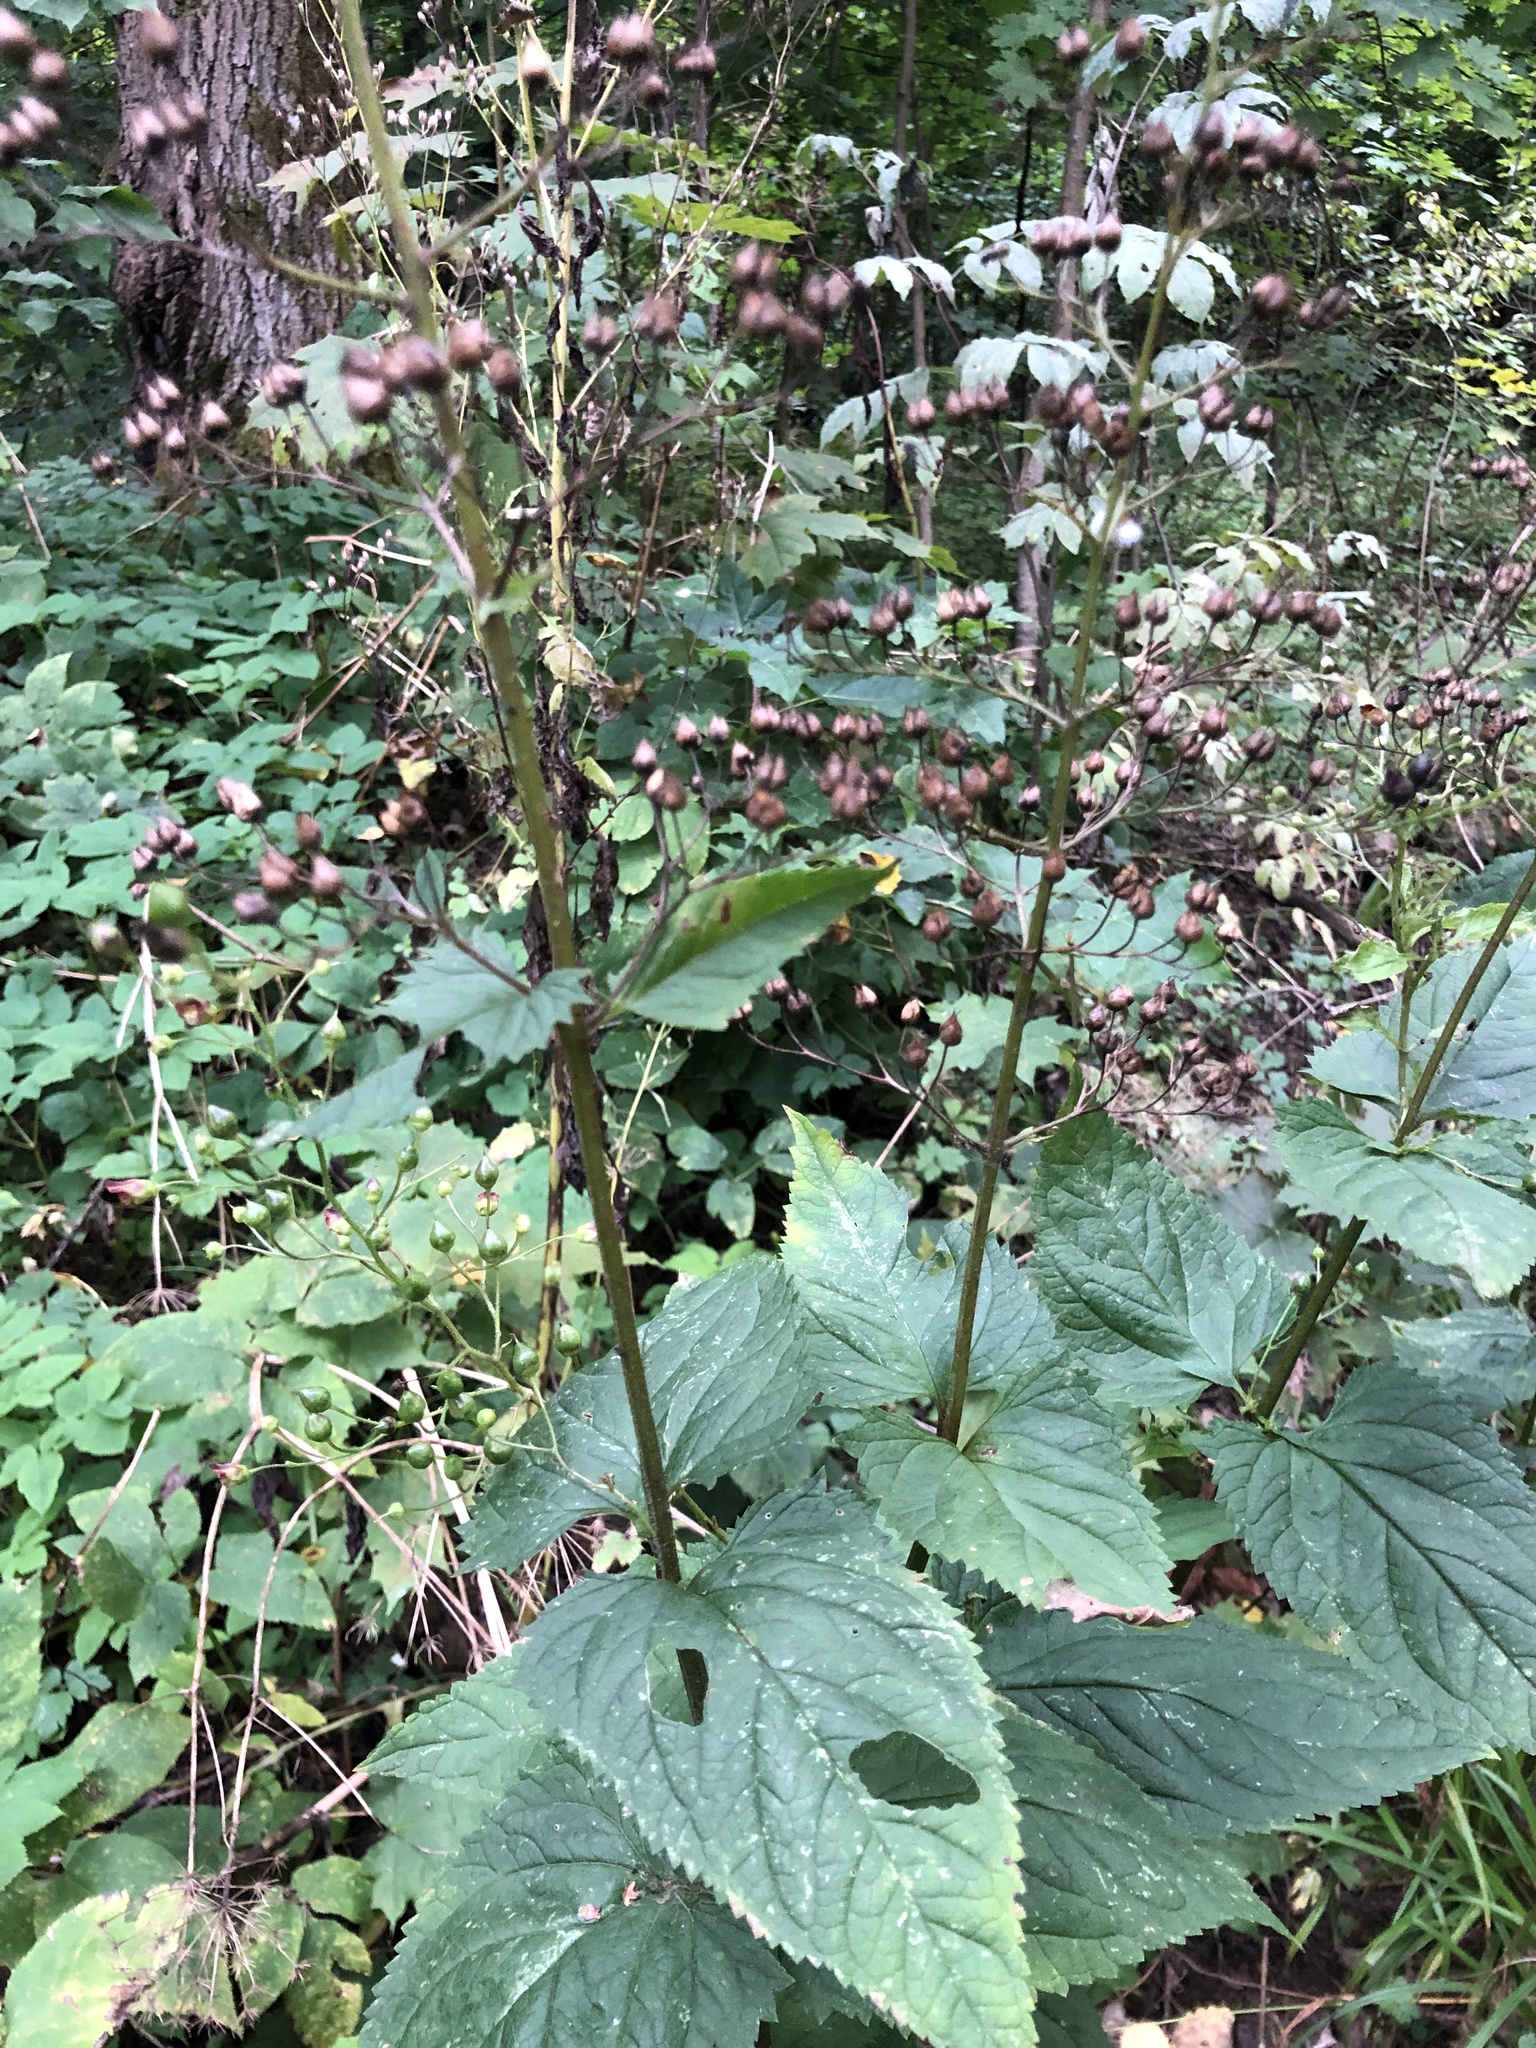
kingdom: Plantae
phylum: Tracheophyta
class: Magnoliopsida
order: Lamiales
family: Scrophulariaceae
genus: Scrophularia
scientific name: Scrophularia nodosa
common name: Common figwort
